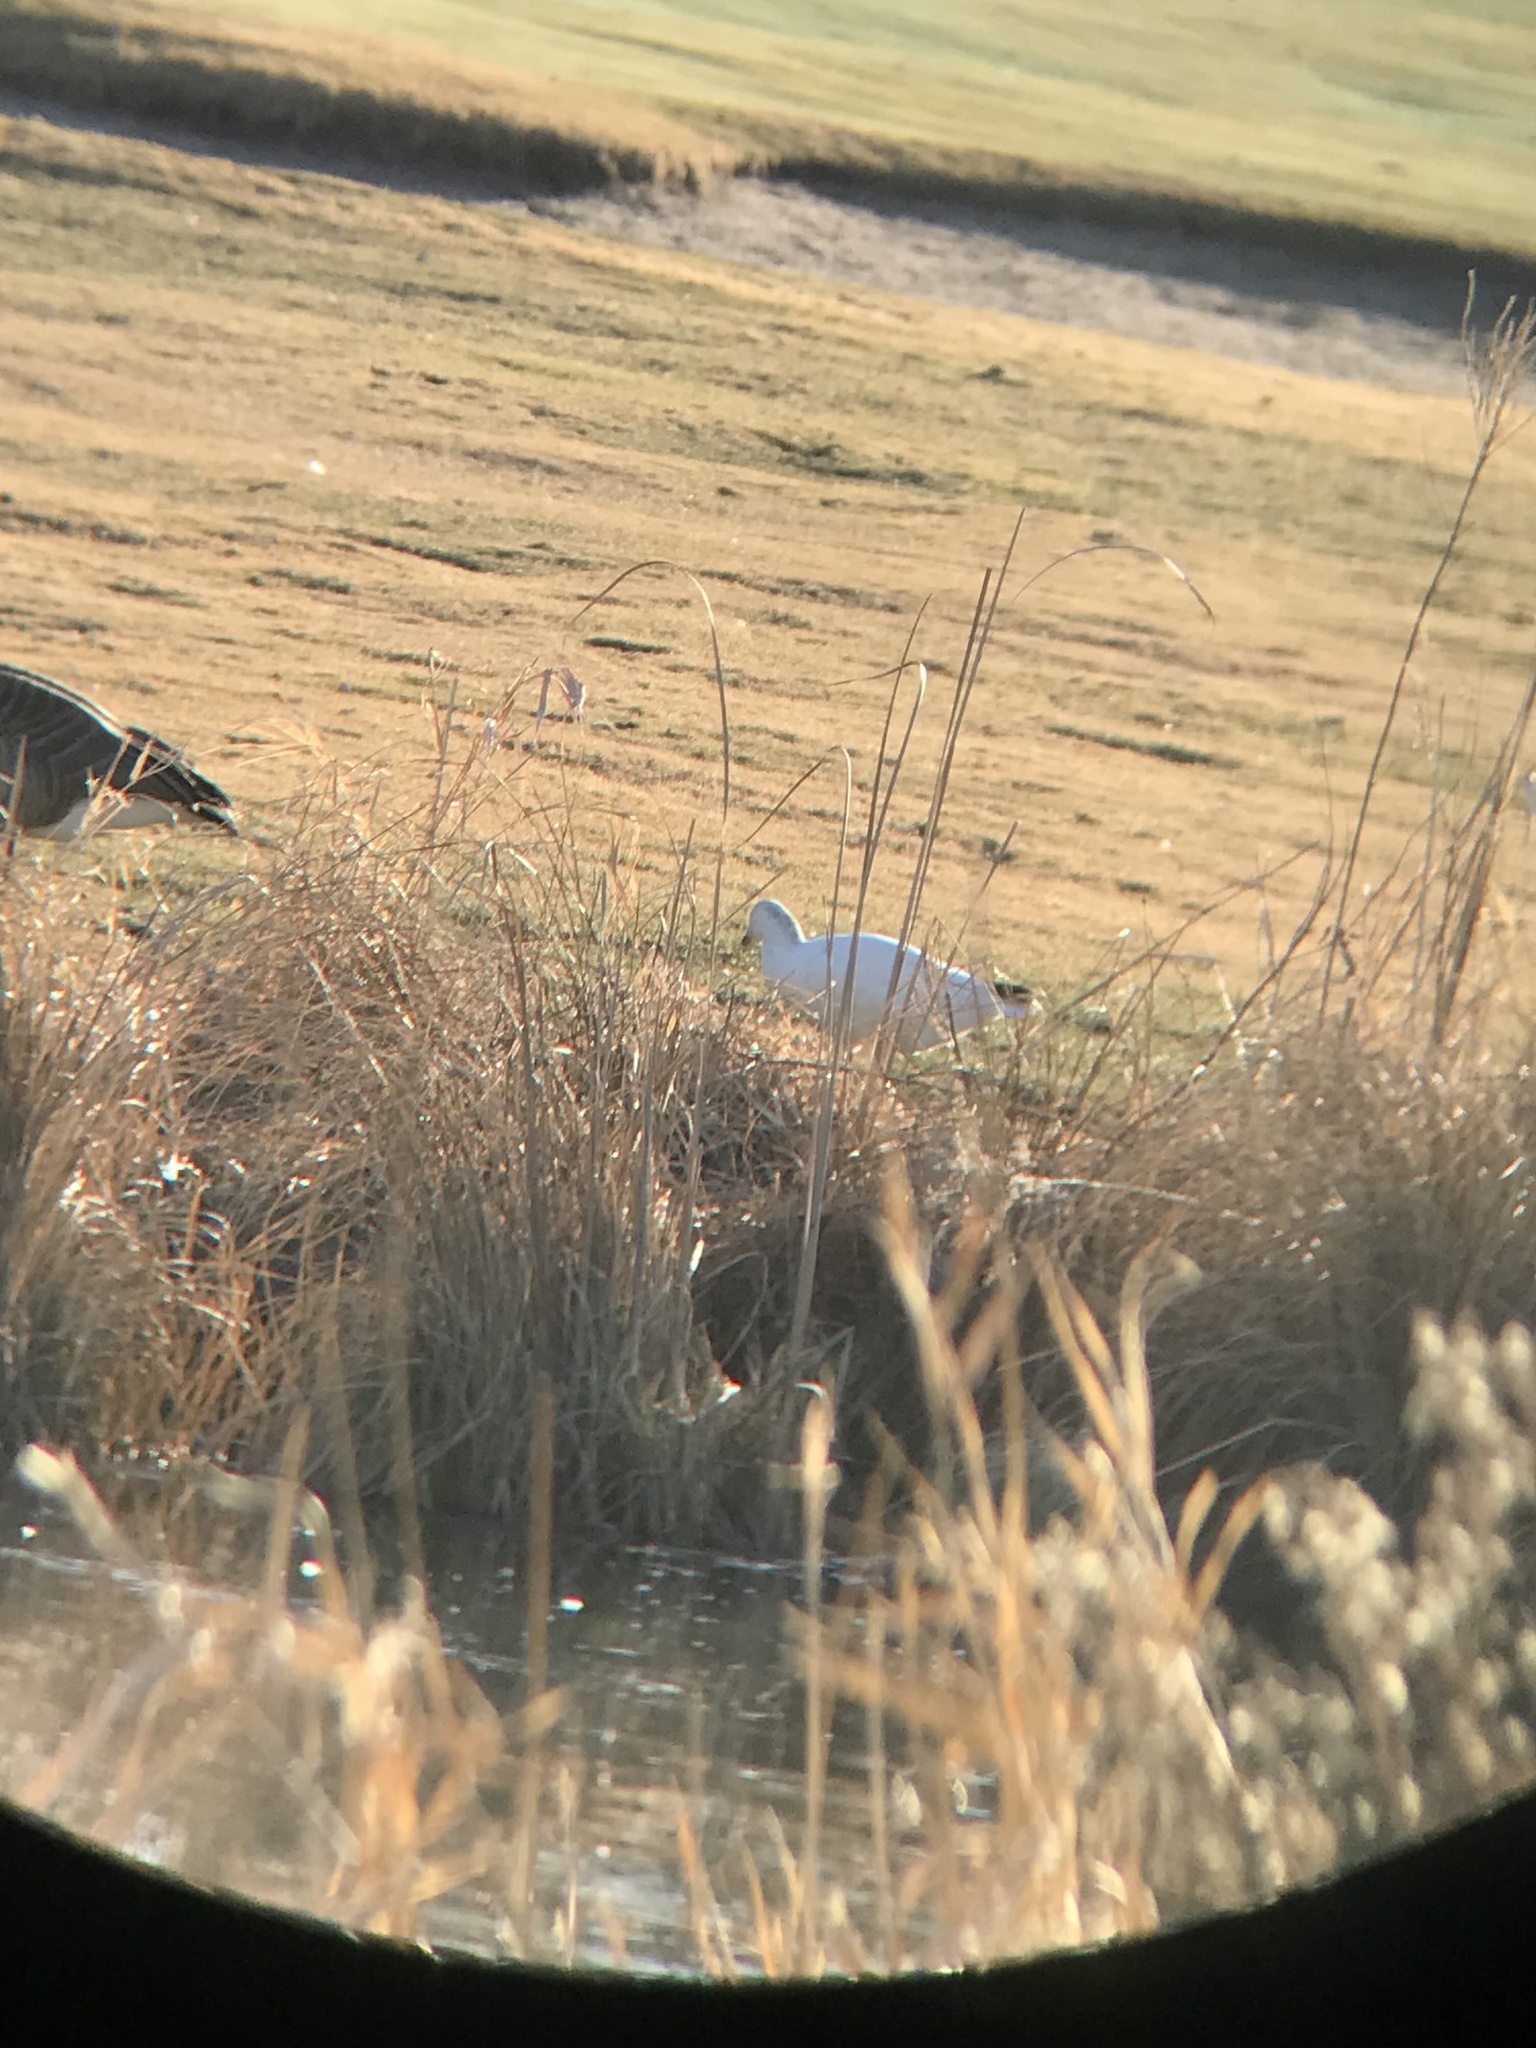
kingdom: Animalia
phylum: Chordata
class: Aves
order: Anseriformes
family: Anatidae
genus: Anser
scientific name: Anser rossii
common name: Ross's goose
